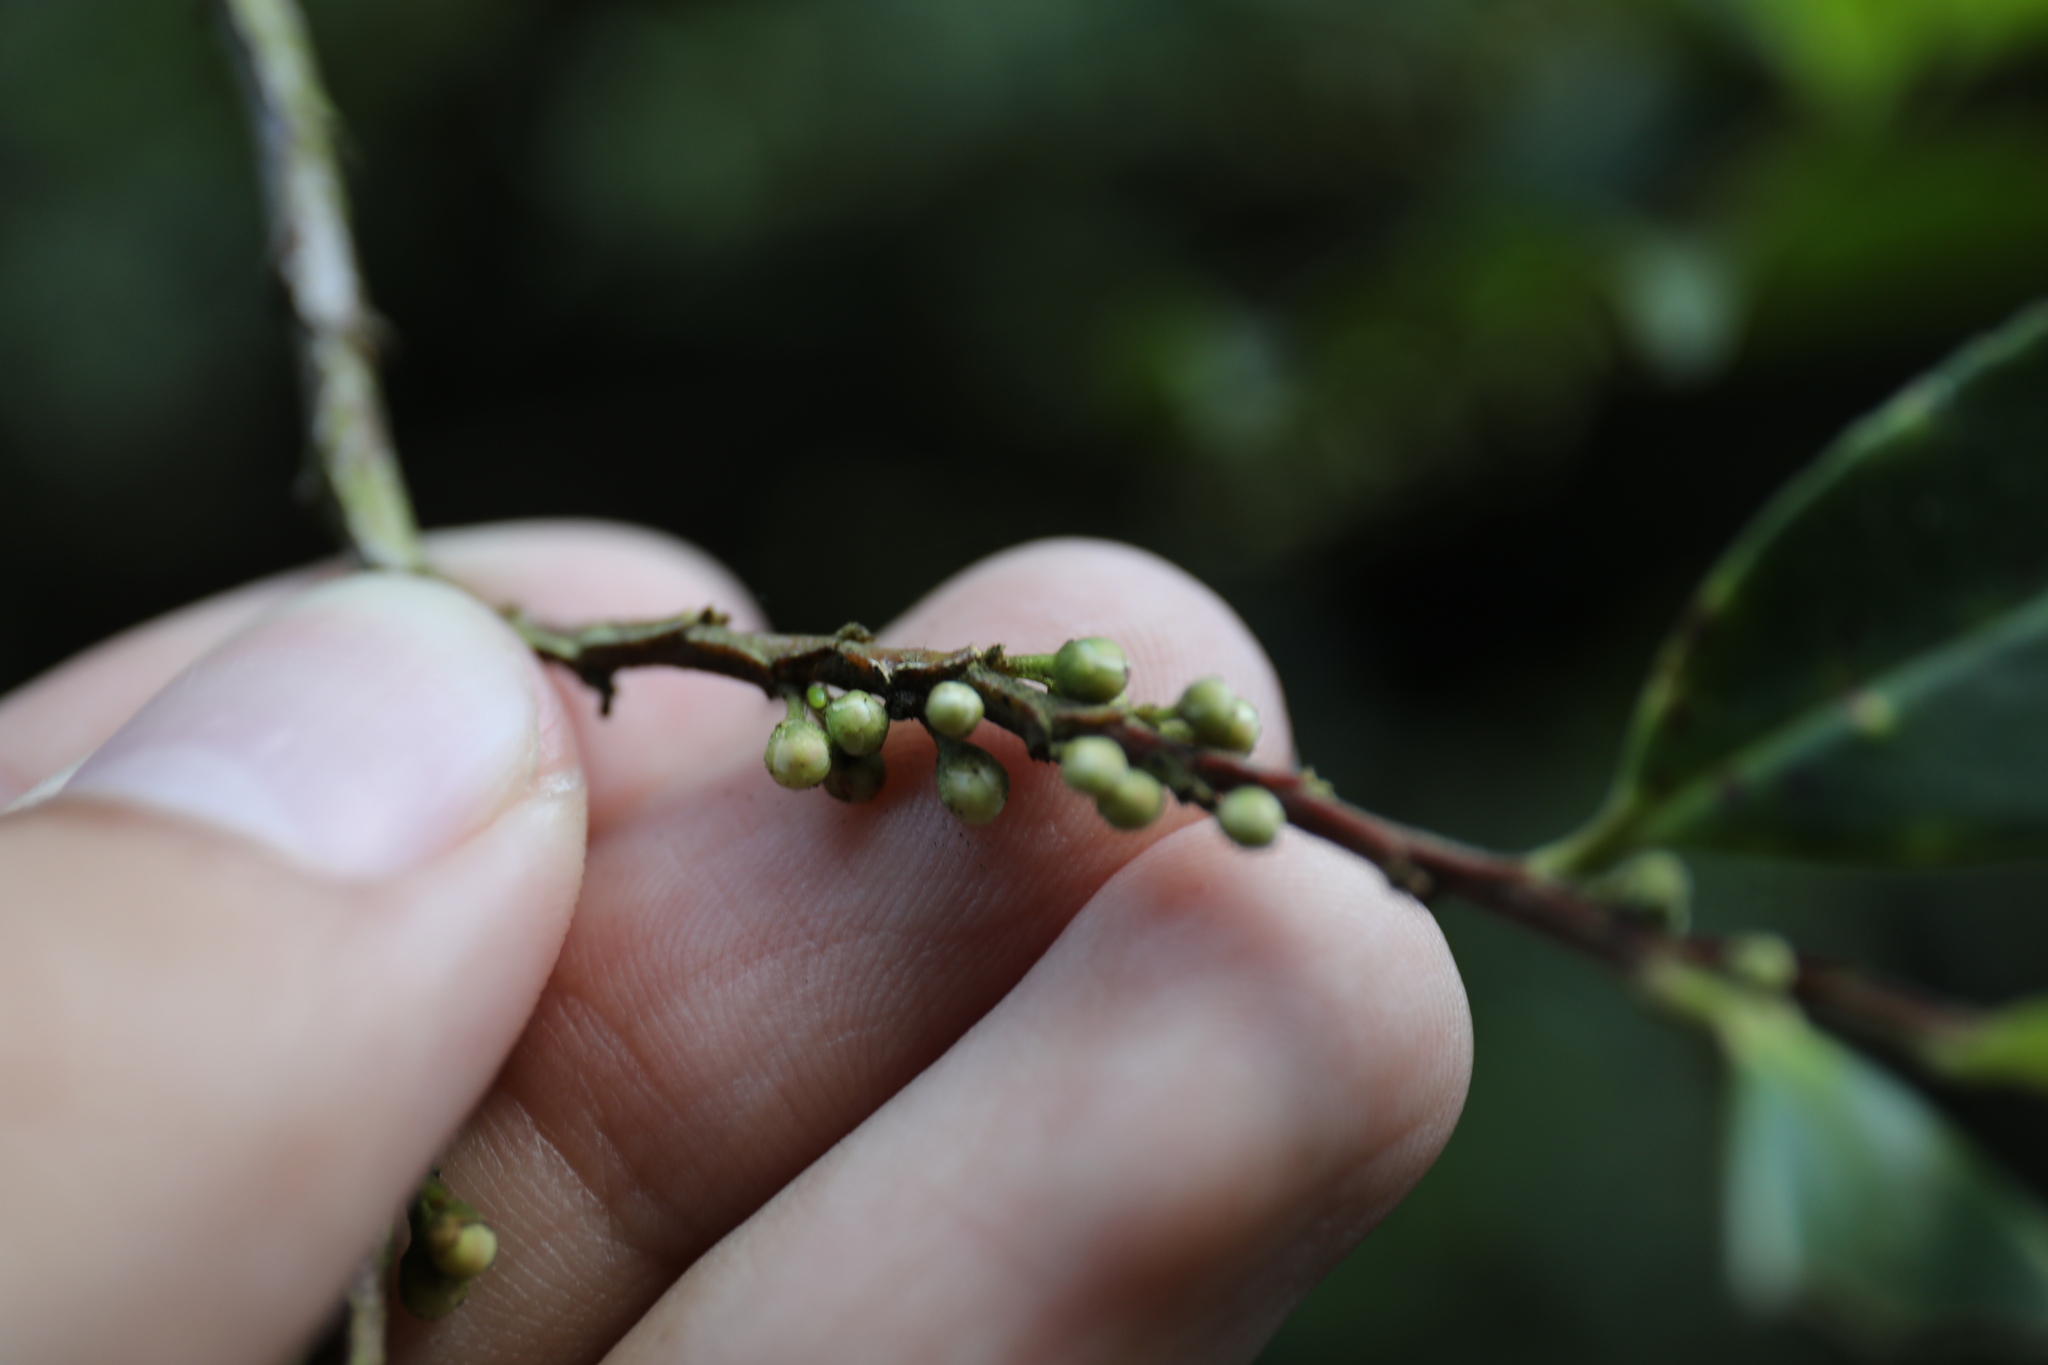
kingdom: Plantae
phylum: Tracheophyta
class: Magnoliopsida
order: Ericales
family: Pentaphylacaceae
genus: Eurya
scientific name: Eurya glaberrima
